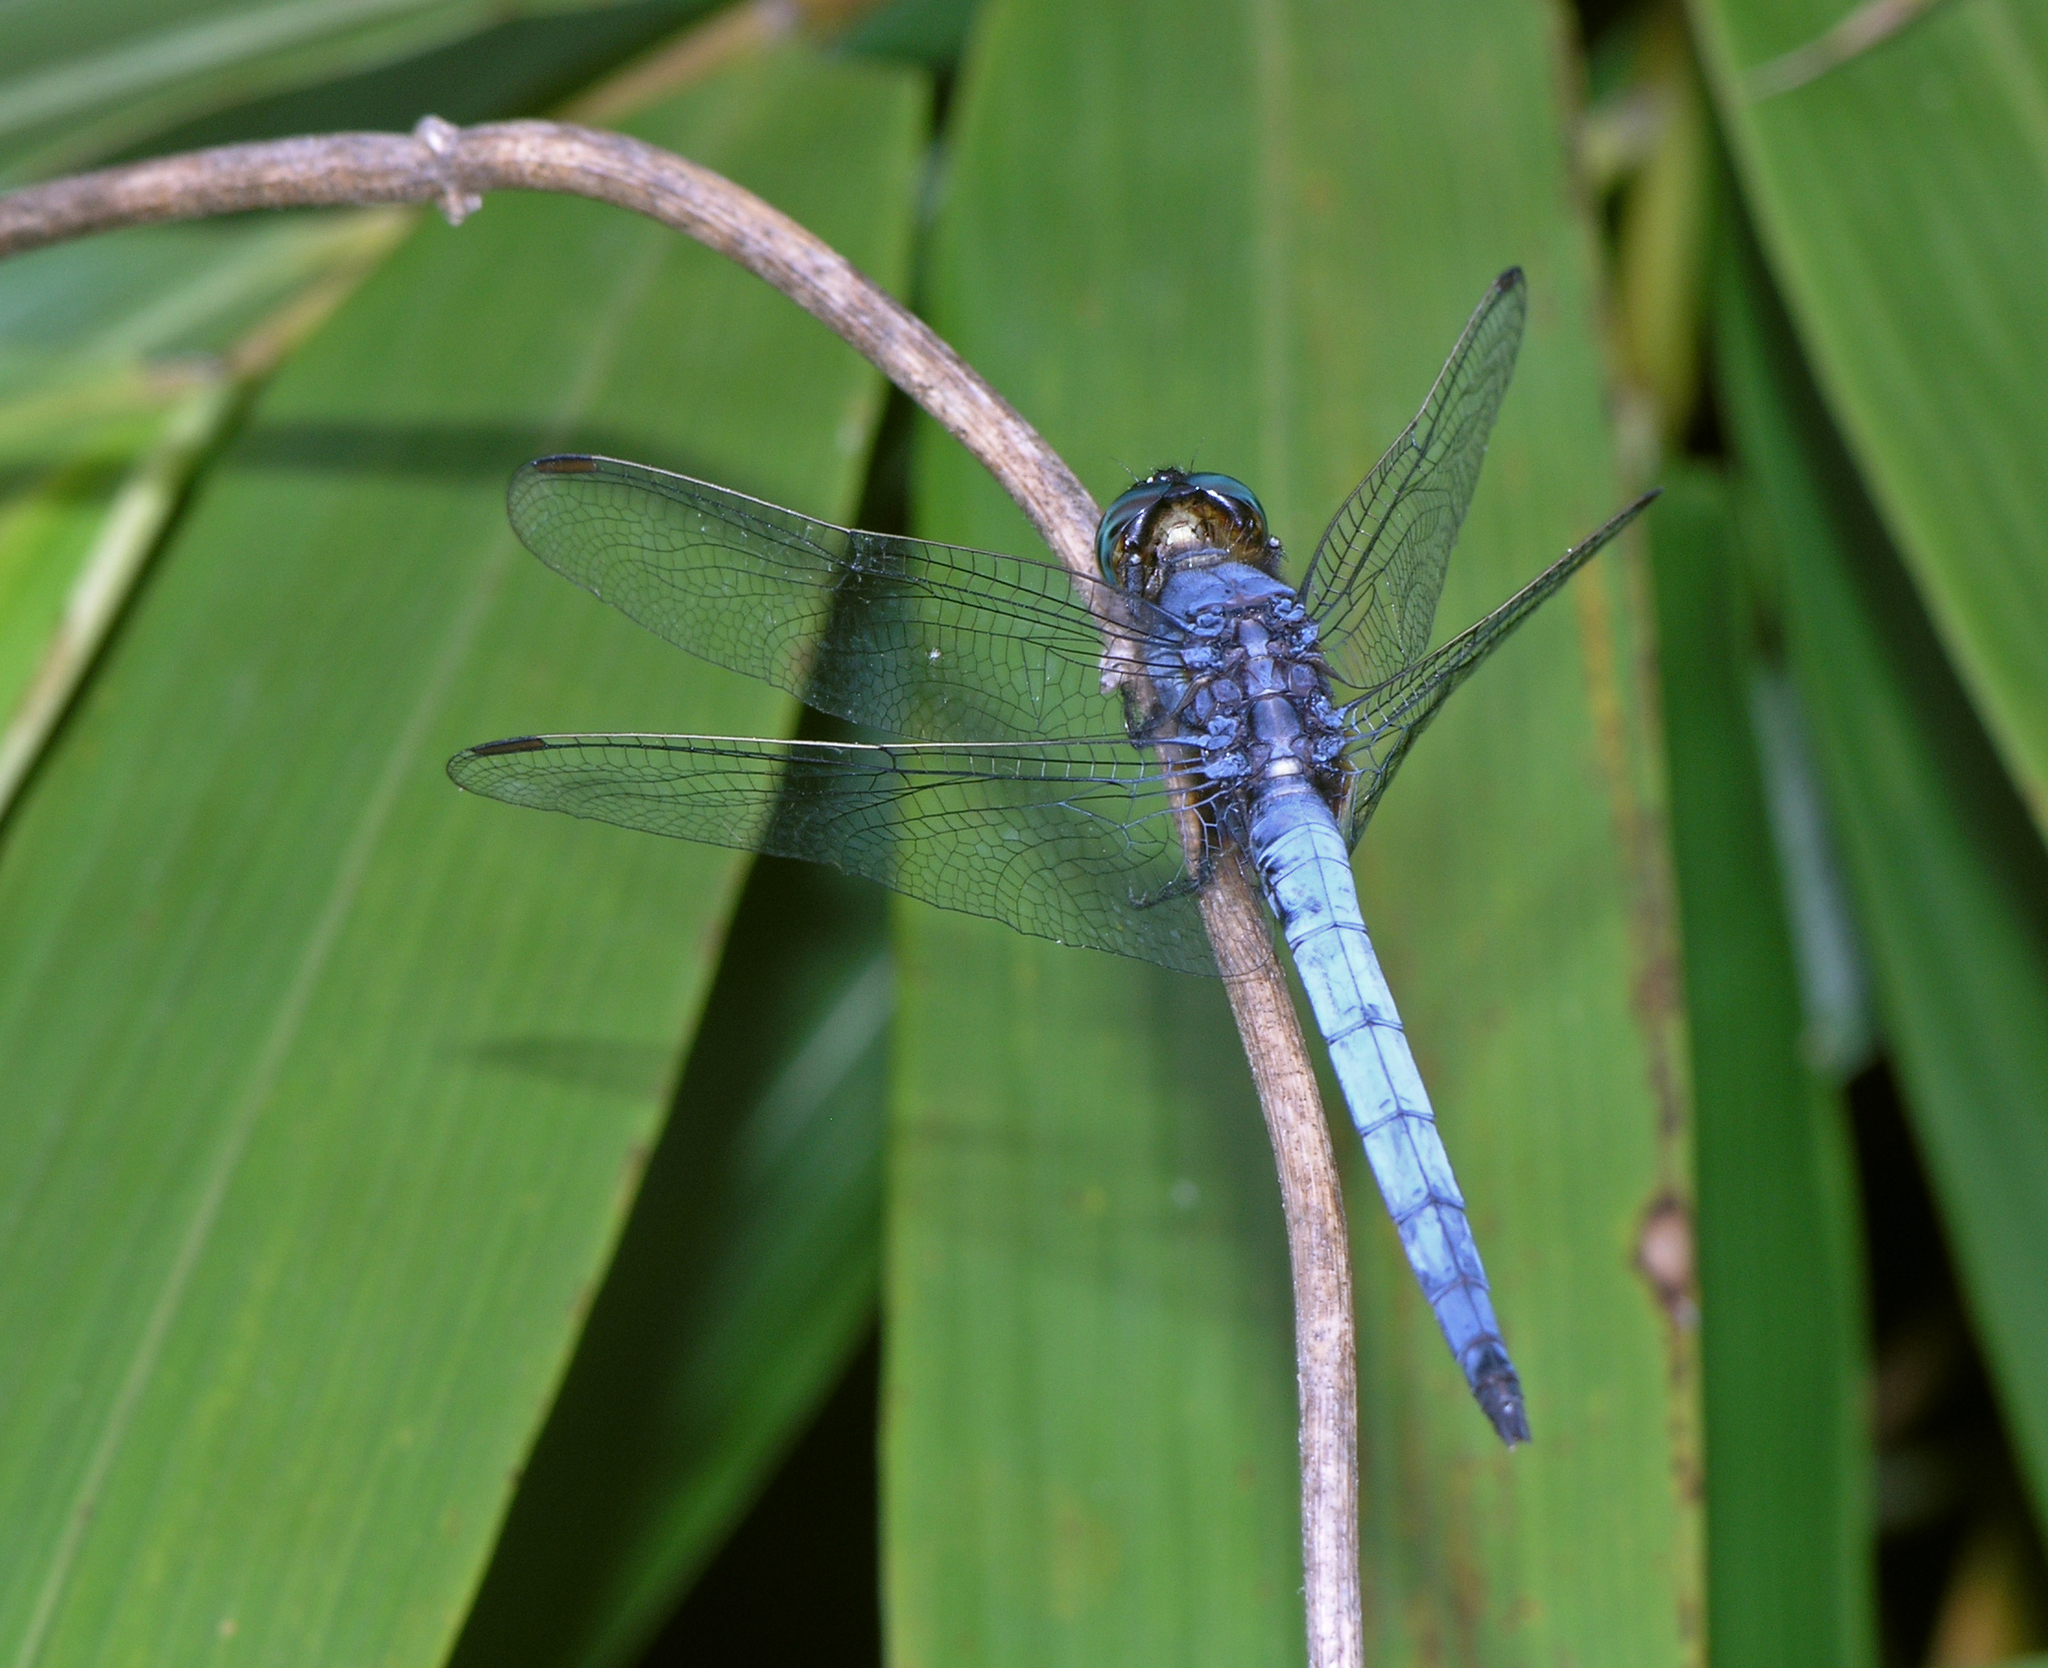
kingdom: Animalia
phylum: Arthropoda
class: Insecta
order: Odonata
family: Libellulidae
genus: Orthetrum
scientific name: Orthetrum glaucum
